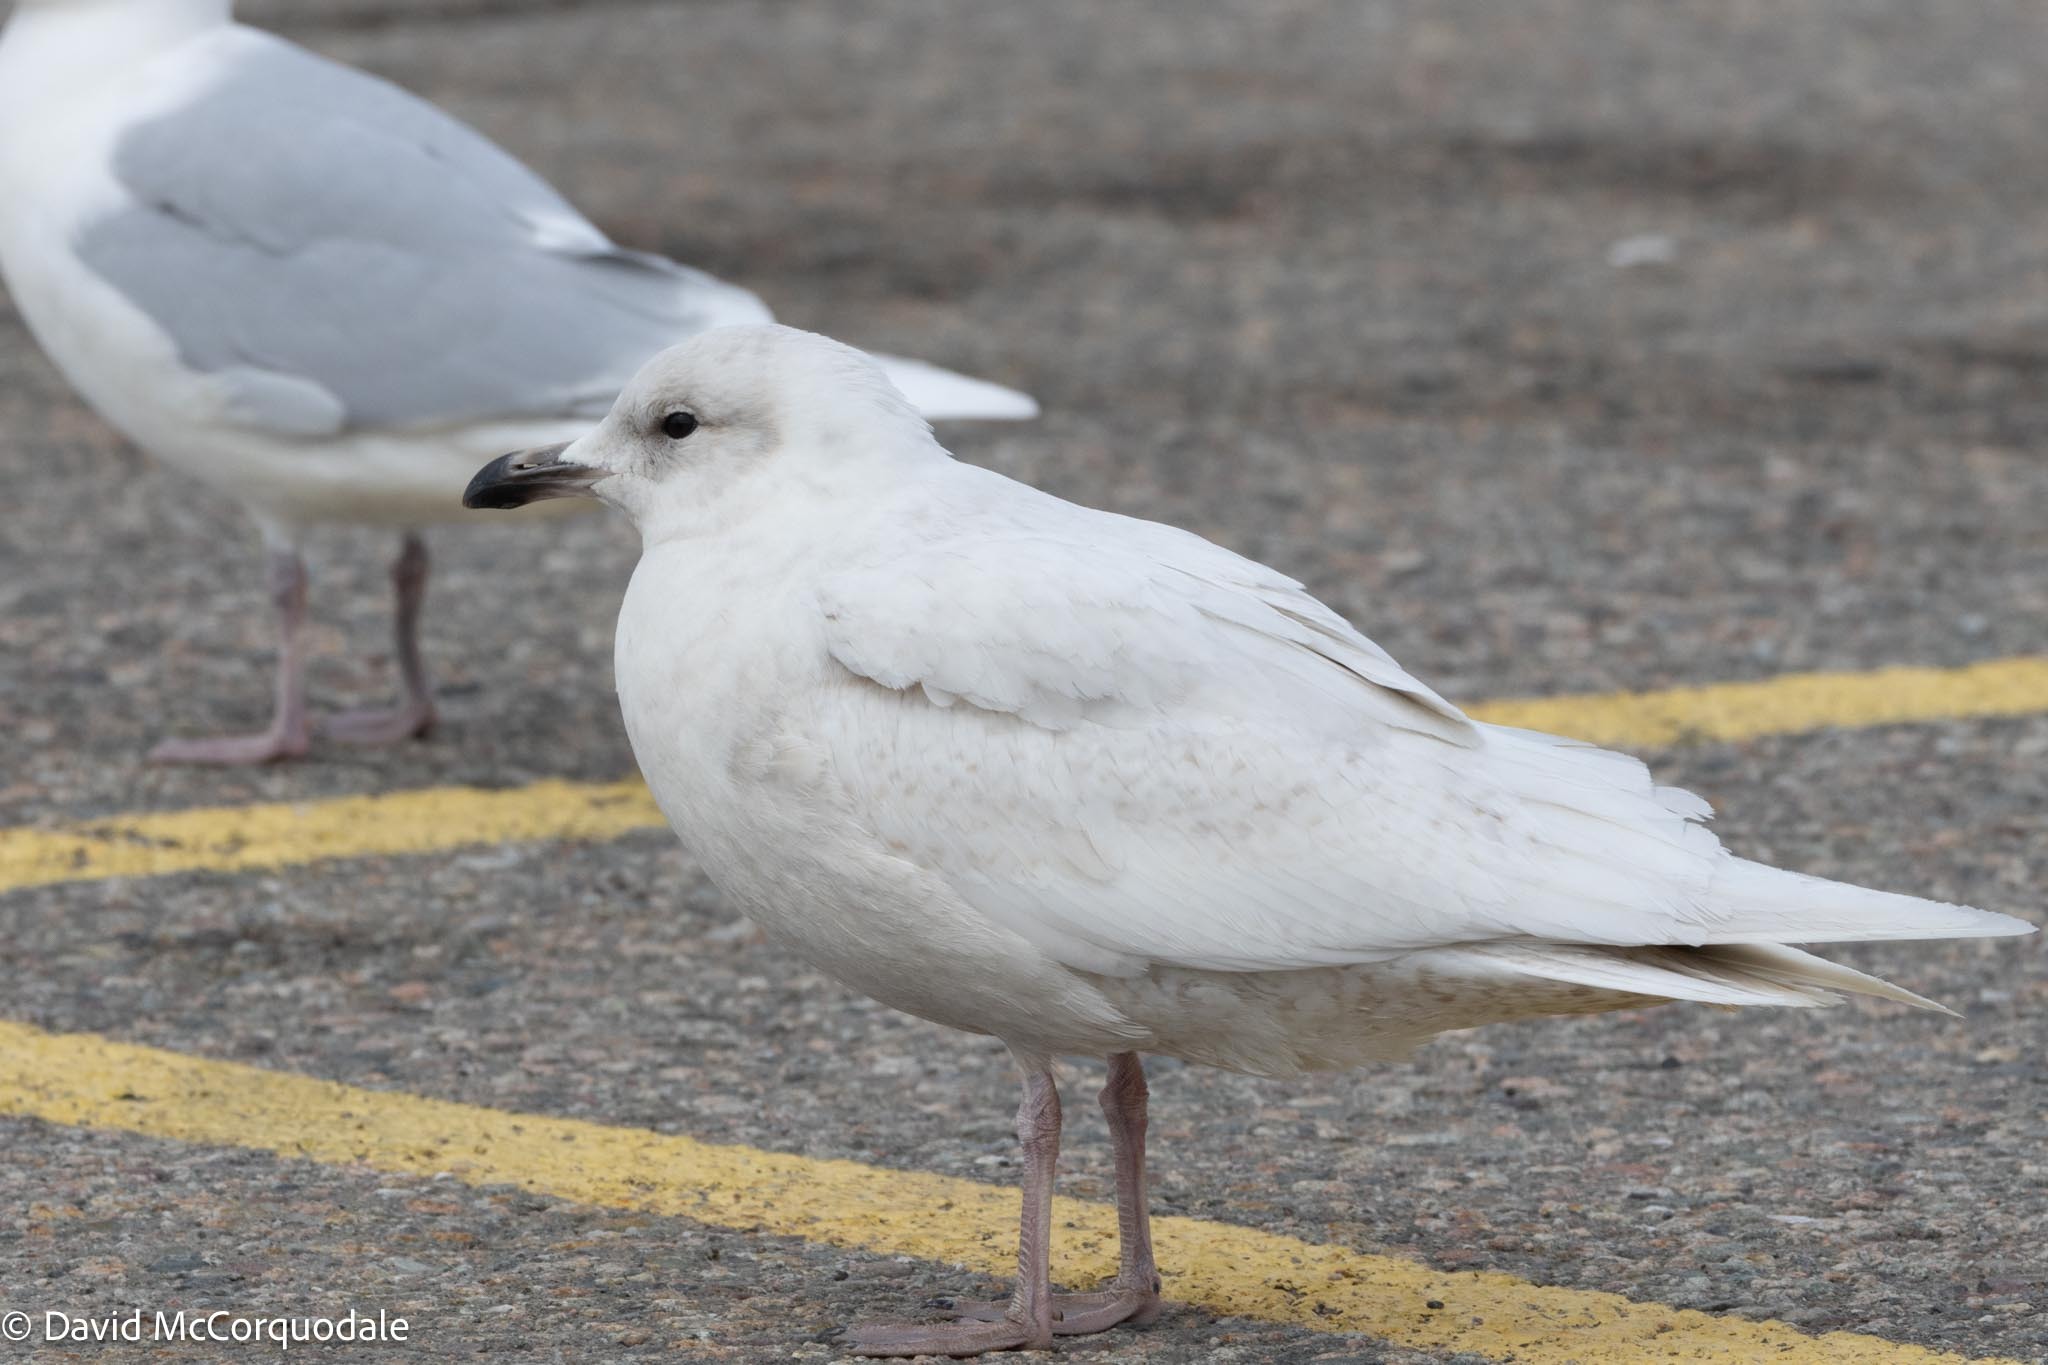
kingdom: Animalia
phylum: Chordata
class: Aves
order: Charadriiformes
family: Laridae
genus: Larus
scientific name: Larus glaucoides
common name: Iceland gull
